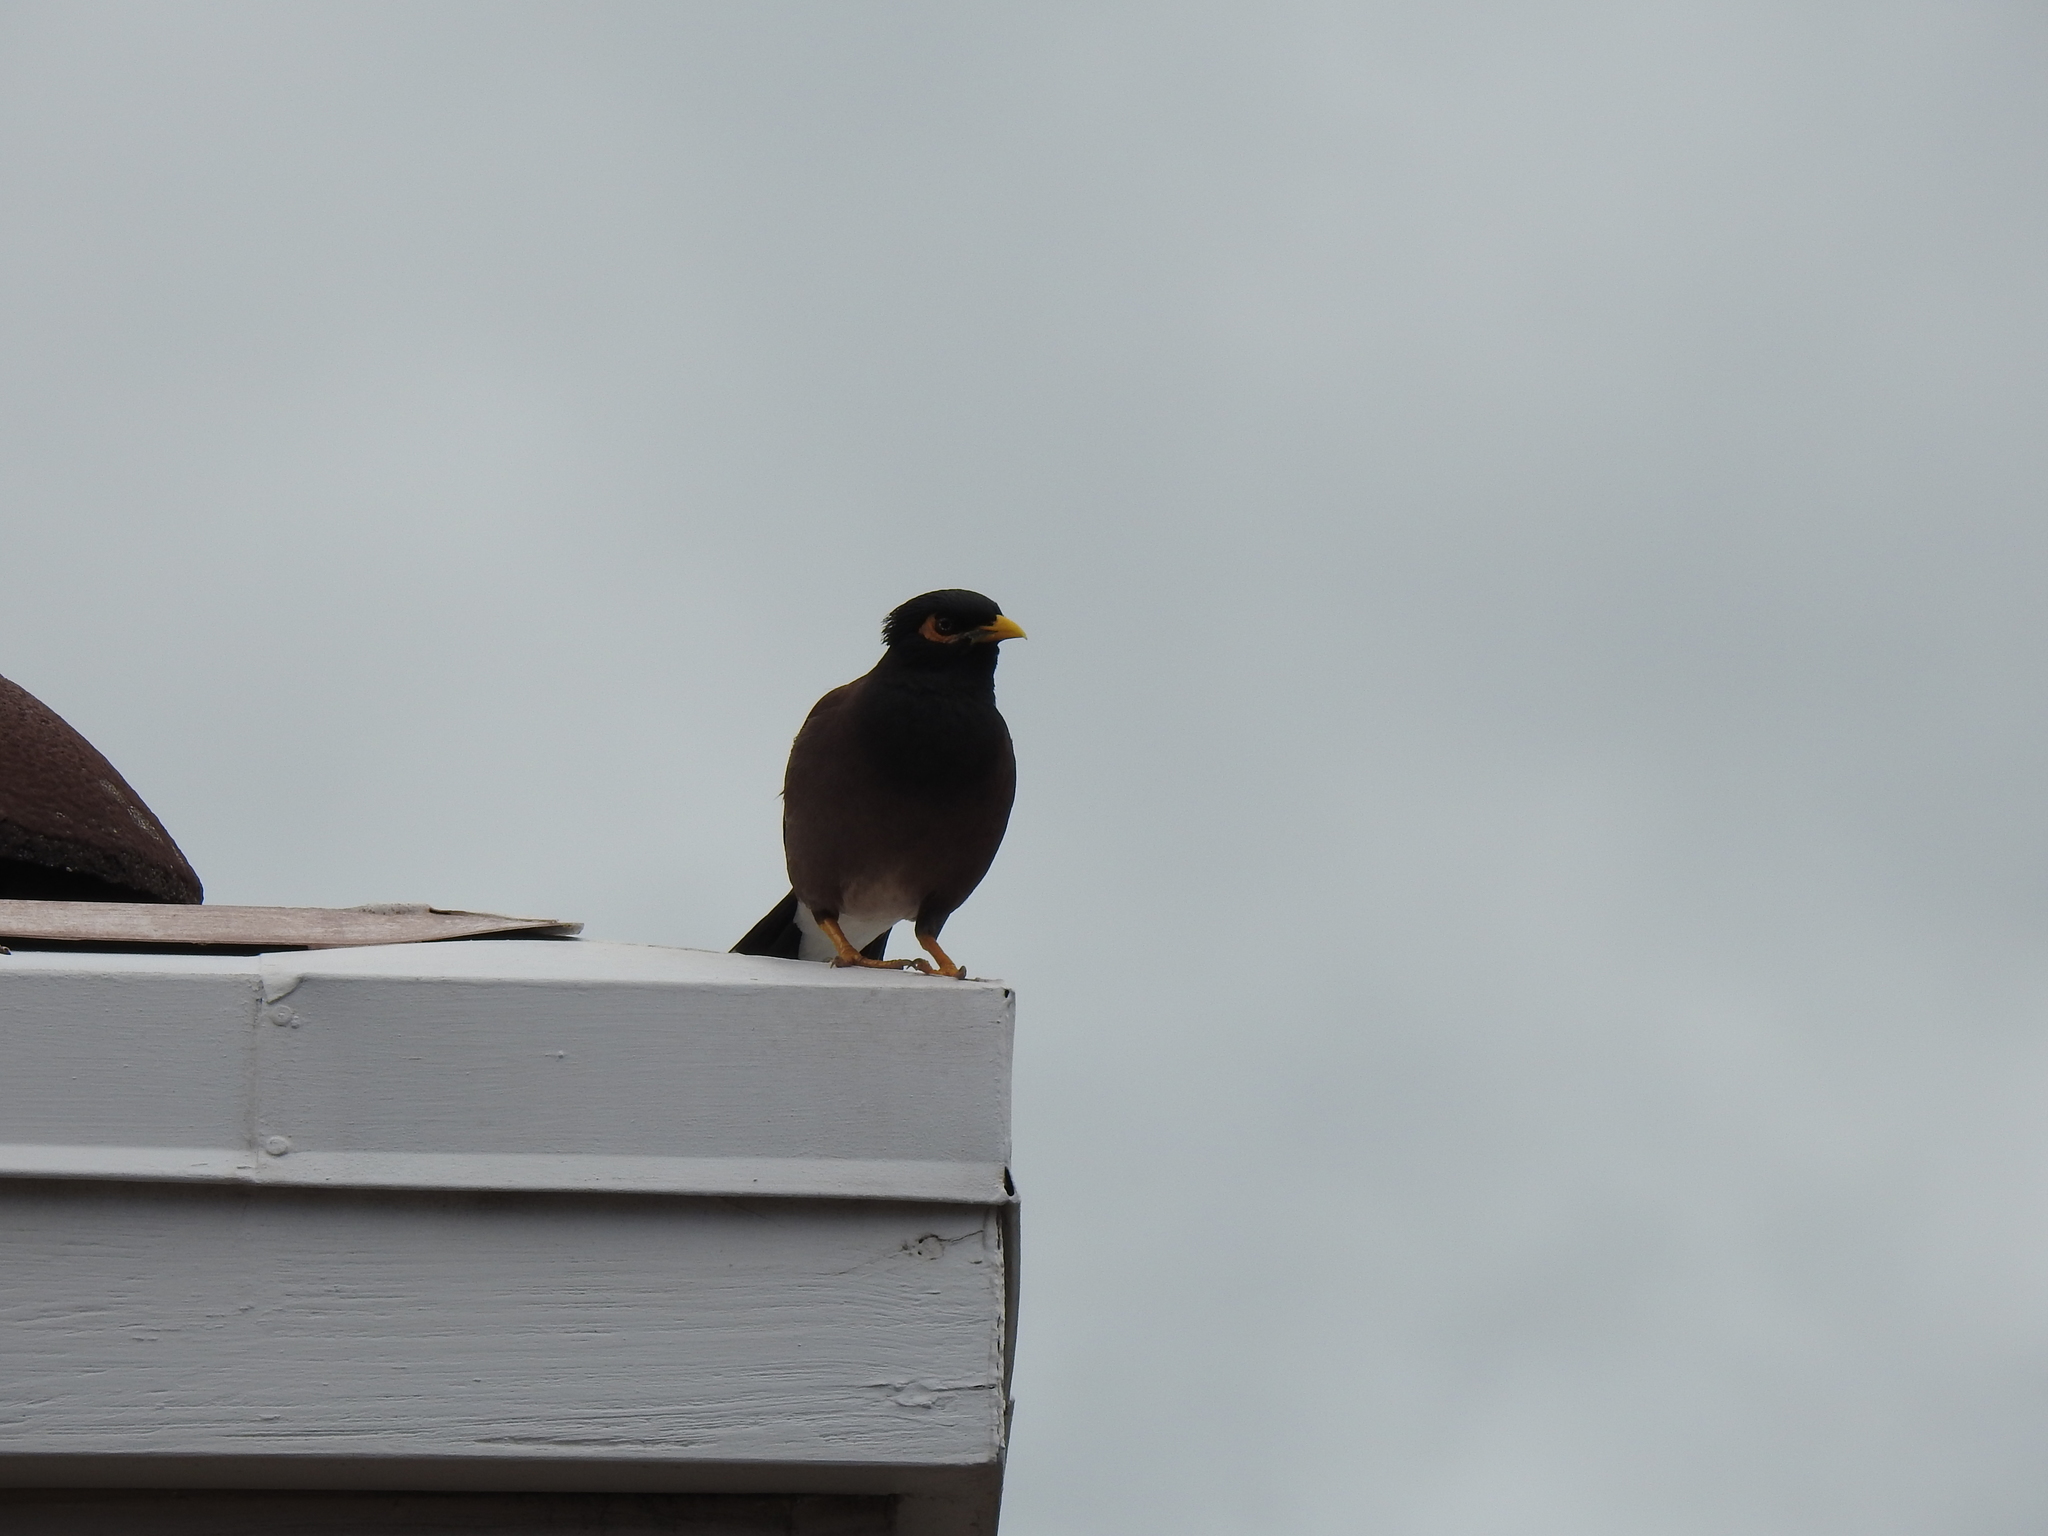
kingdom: Animalia
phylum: Chordata
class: Aves
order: Passeriformes
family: Sturnidae
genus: Acridotheres
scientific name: Acridotheres tristis
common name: Common myna
